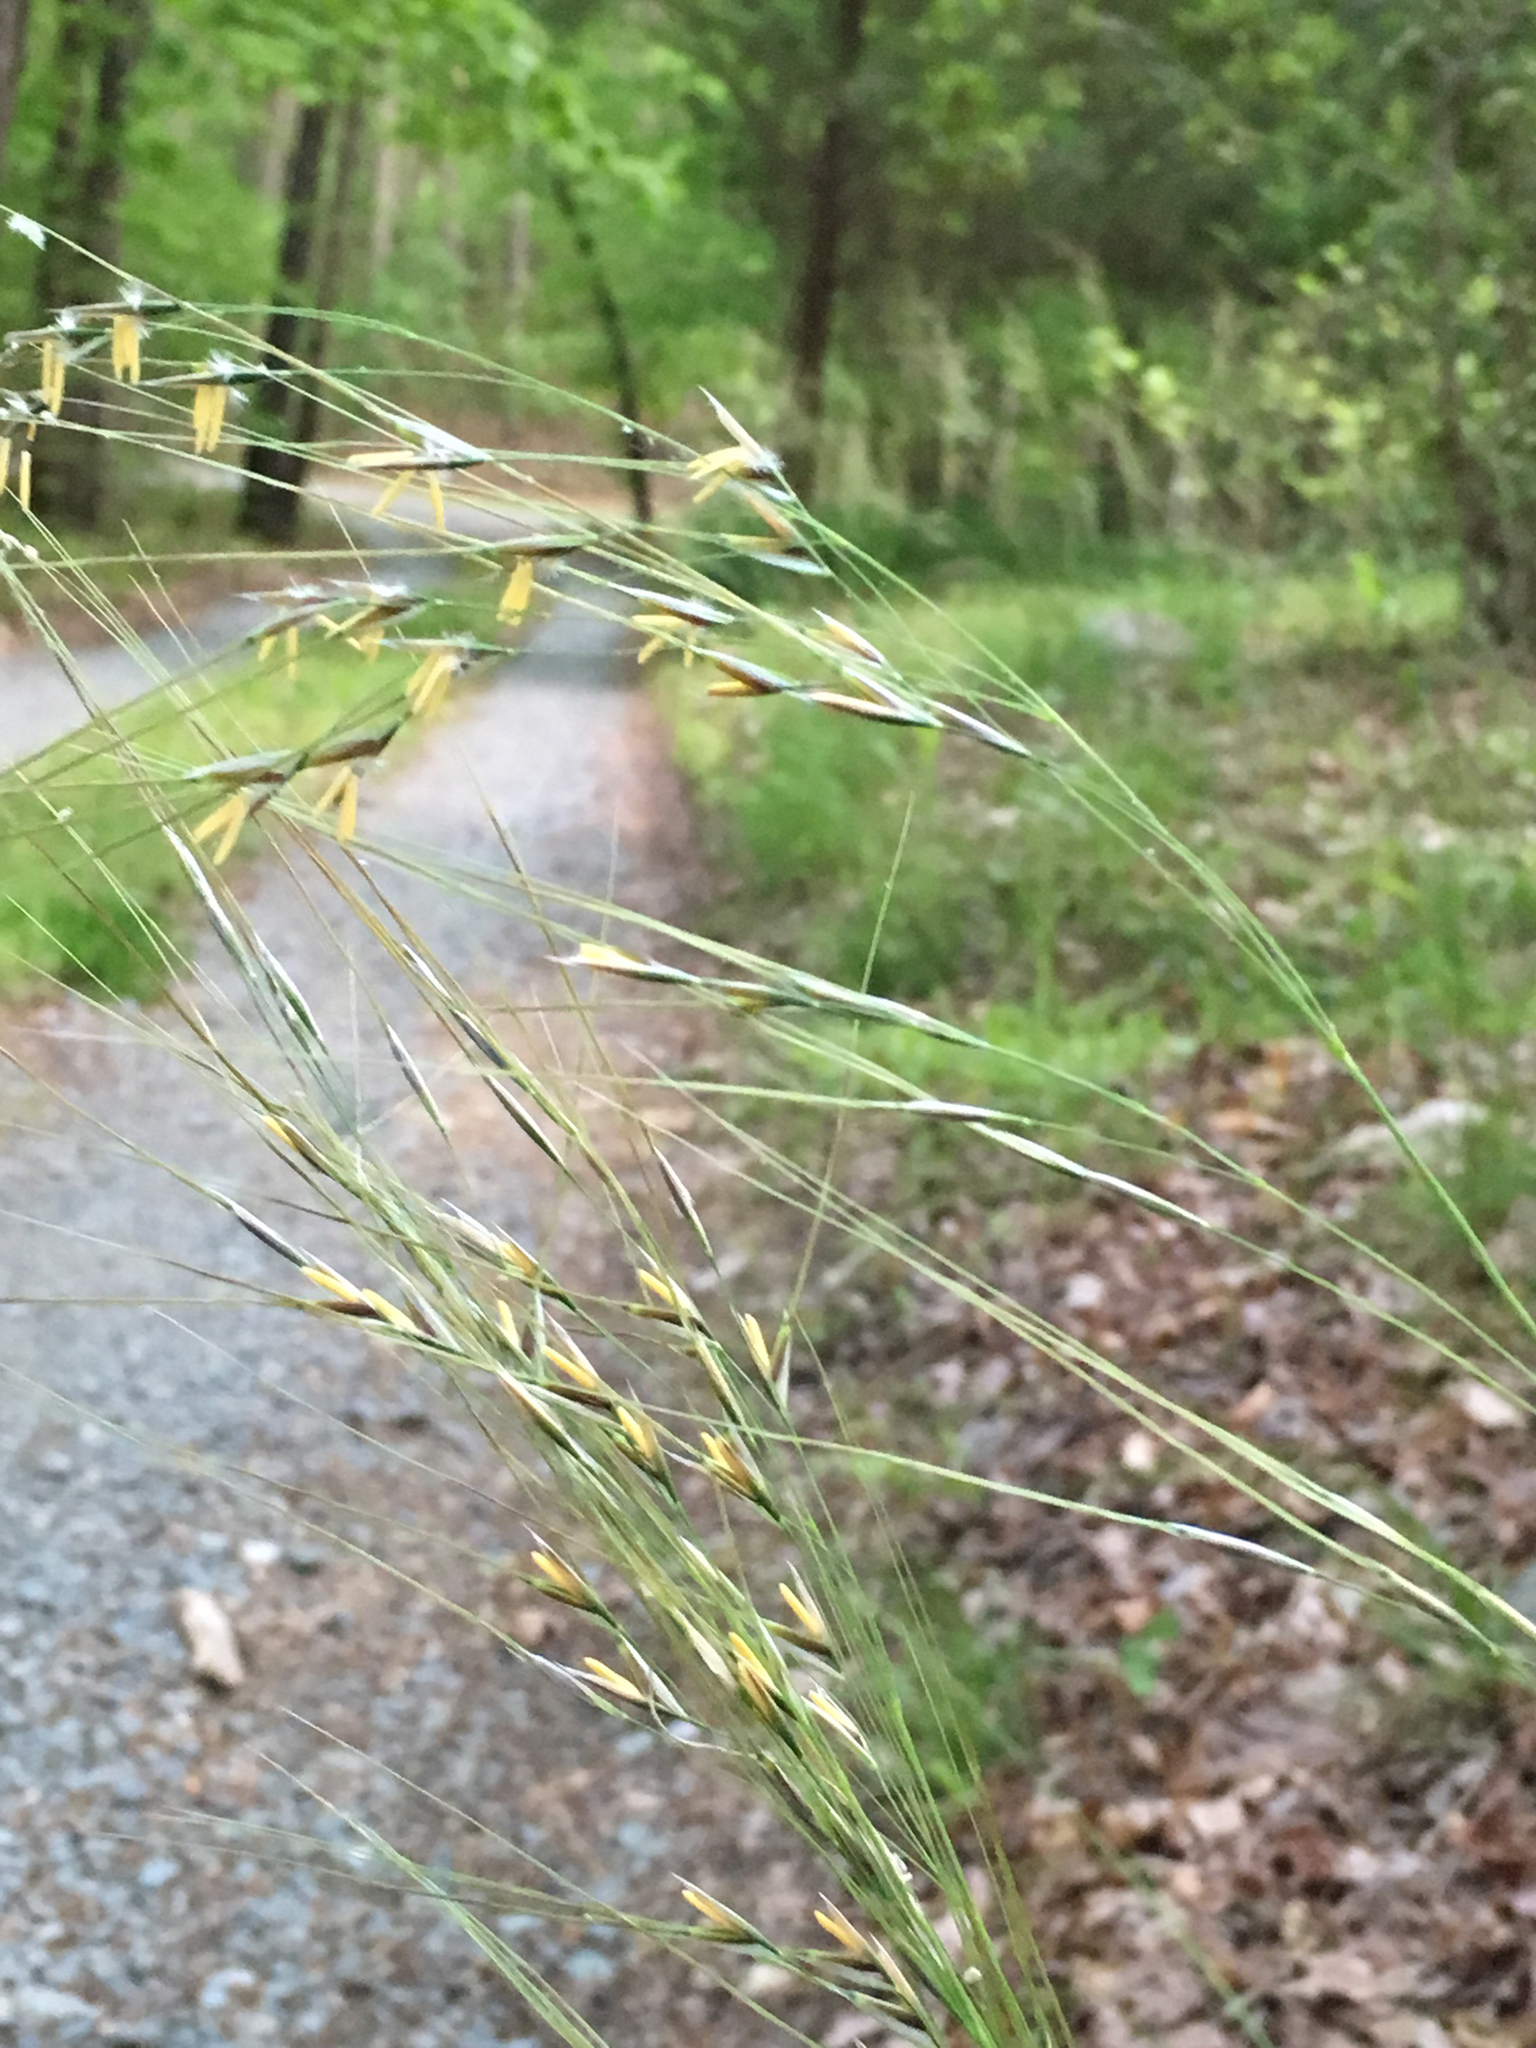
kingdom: Plantae
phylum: Tracheophyta
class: Liliopsida
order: Poales
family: Poaceae
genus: Piptochaetium
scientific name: Piptochaetium avenaceum
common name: Black bunchgrass
